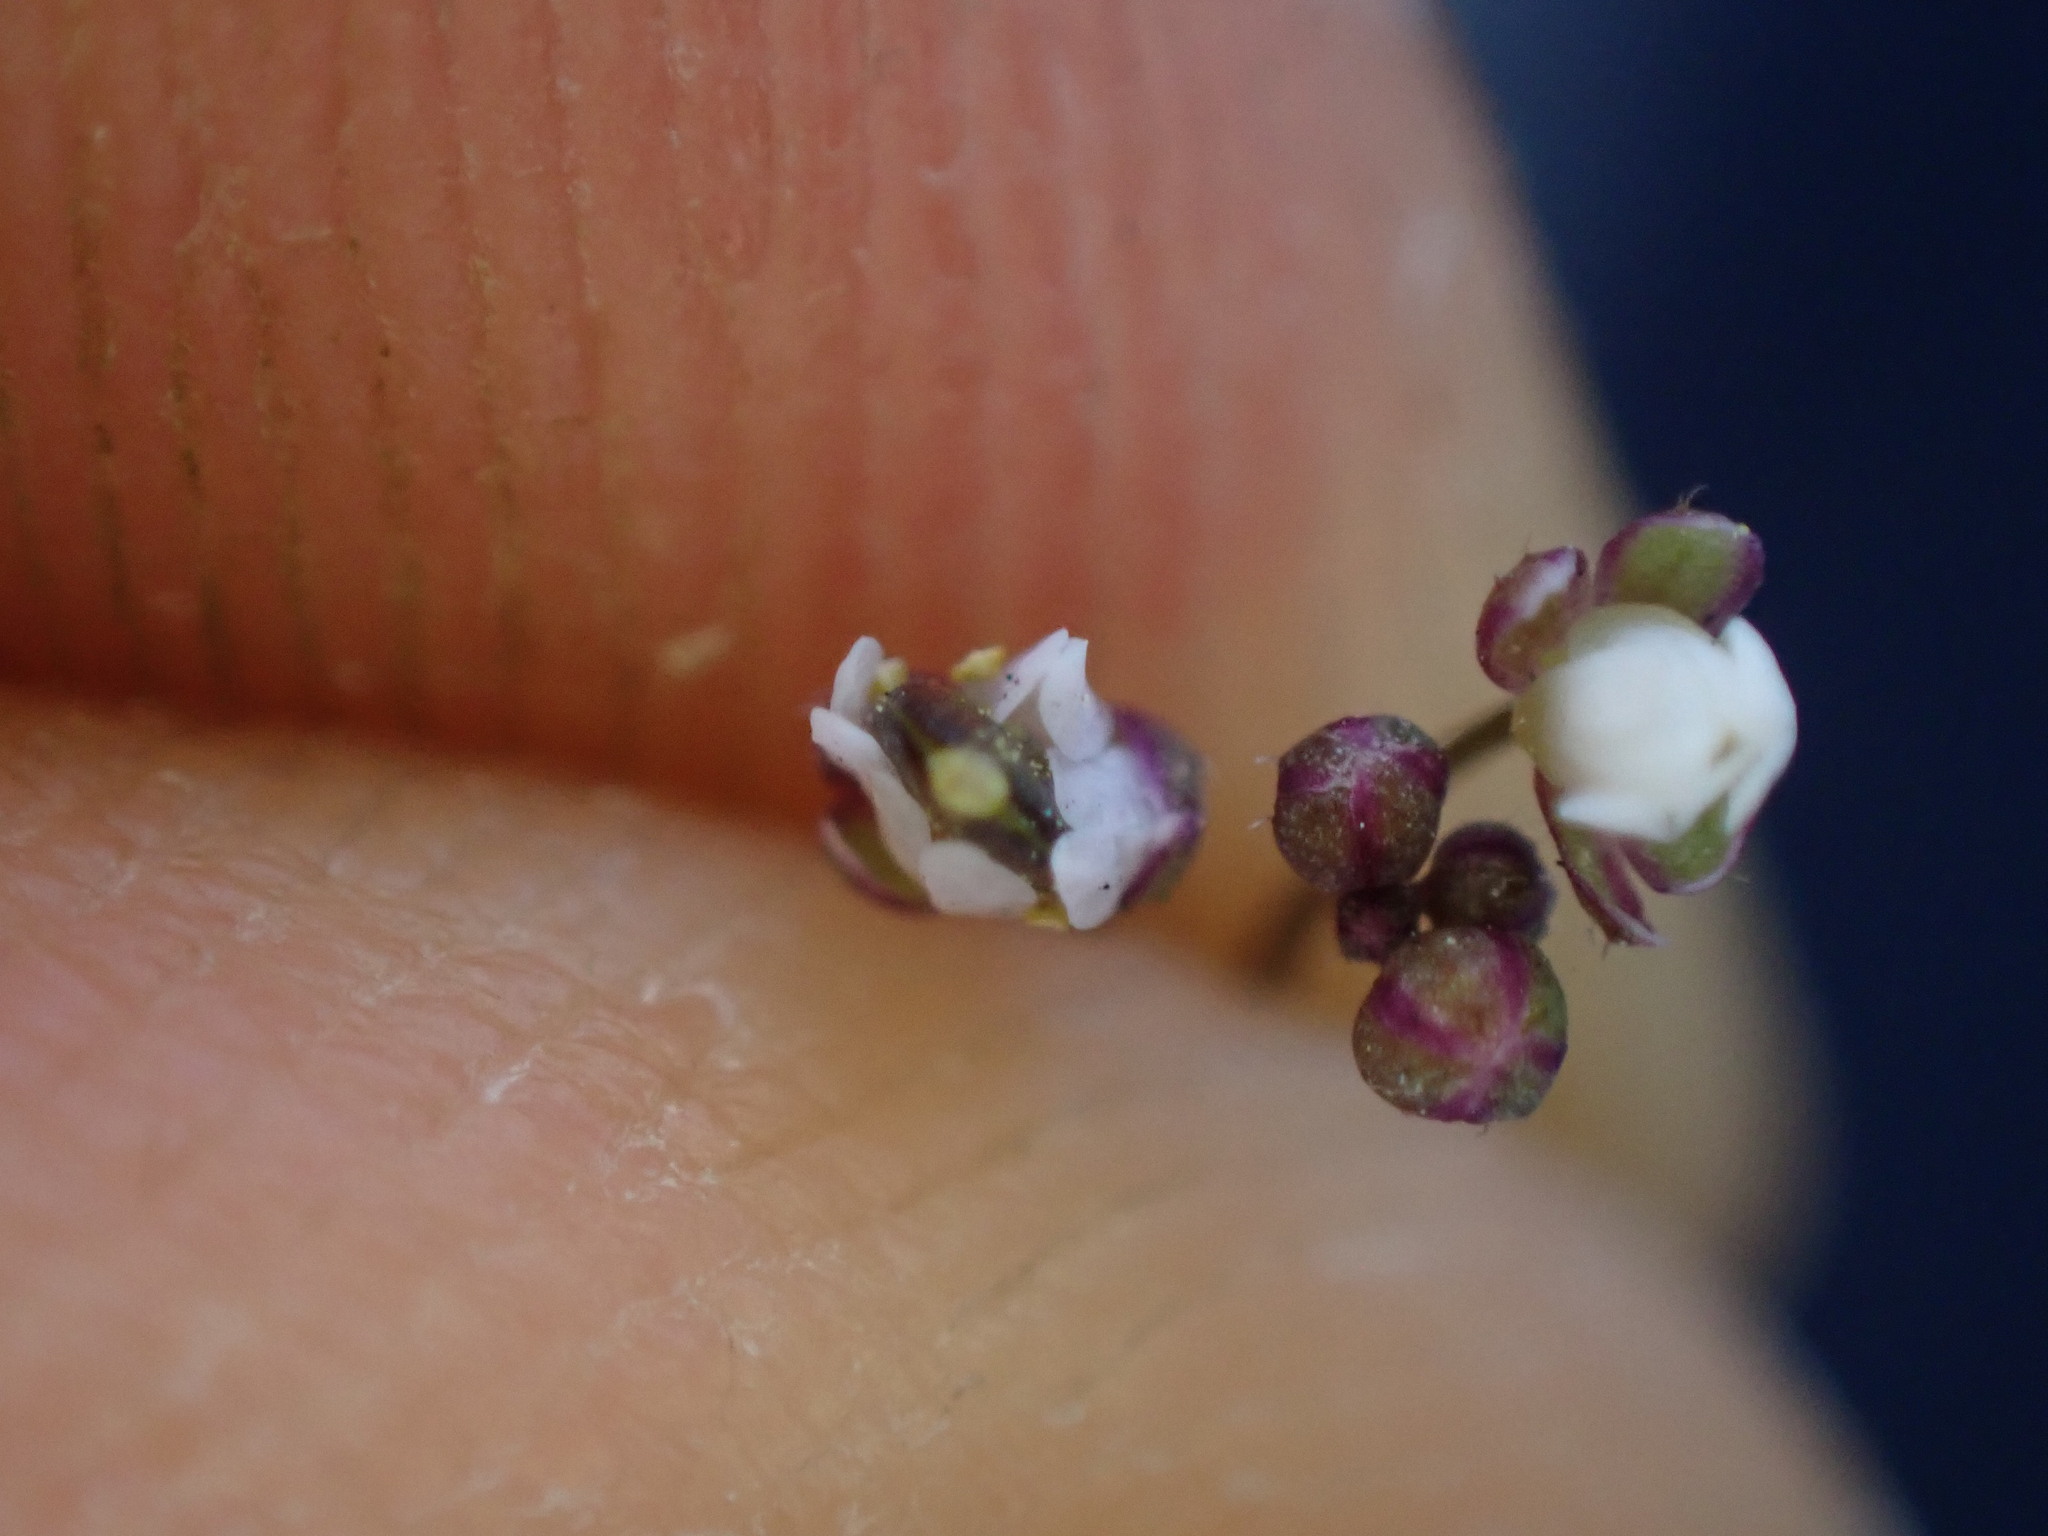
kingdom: Plantae
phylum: Tracheophyta
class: Magnoliopsida
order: Brassicales
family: Brassicaceae
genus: Draba
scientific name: Draba verna
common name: Spring draba
